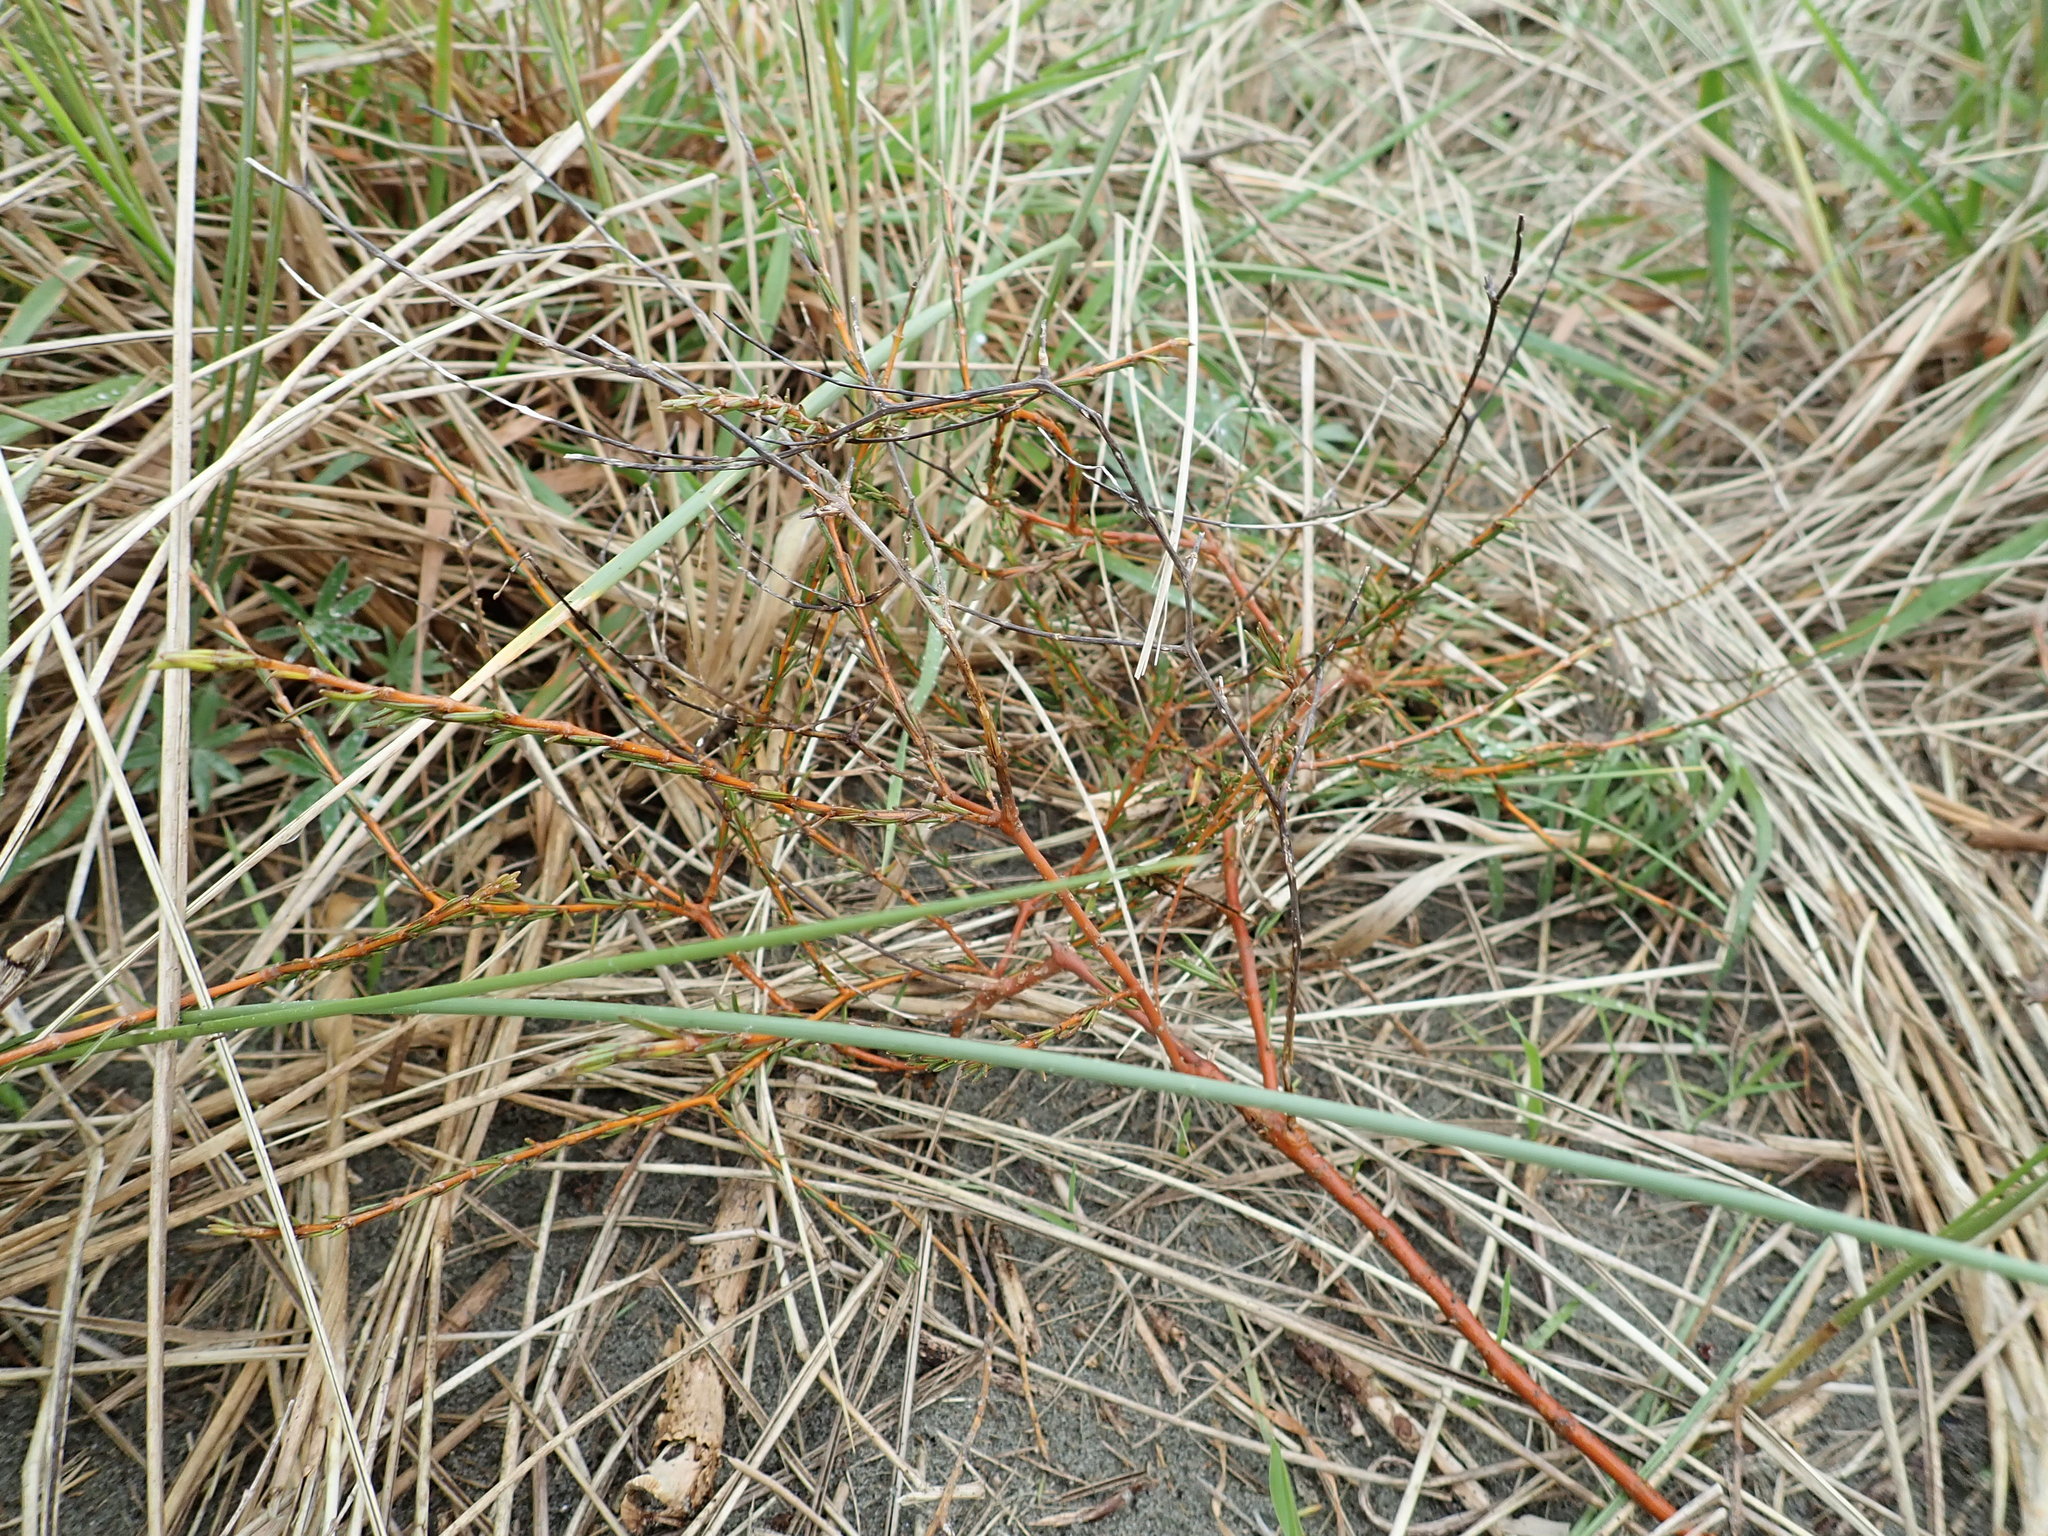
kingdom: Plantae
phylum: Tracheophyta
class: Magnoliopsida
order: Gentianales
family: Rubiaceae
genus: Coprosma
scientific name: Coprosma acerosa
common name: Sand coprosma
